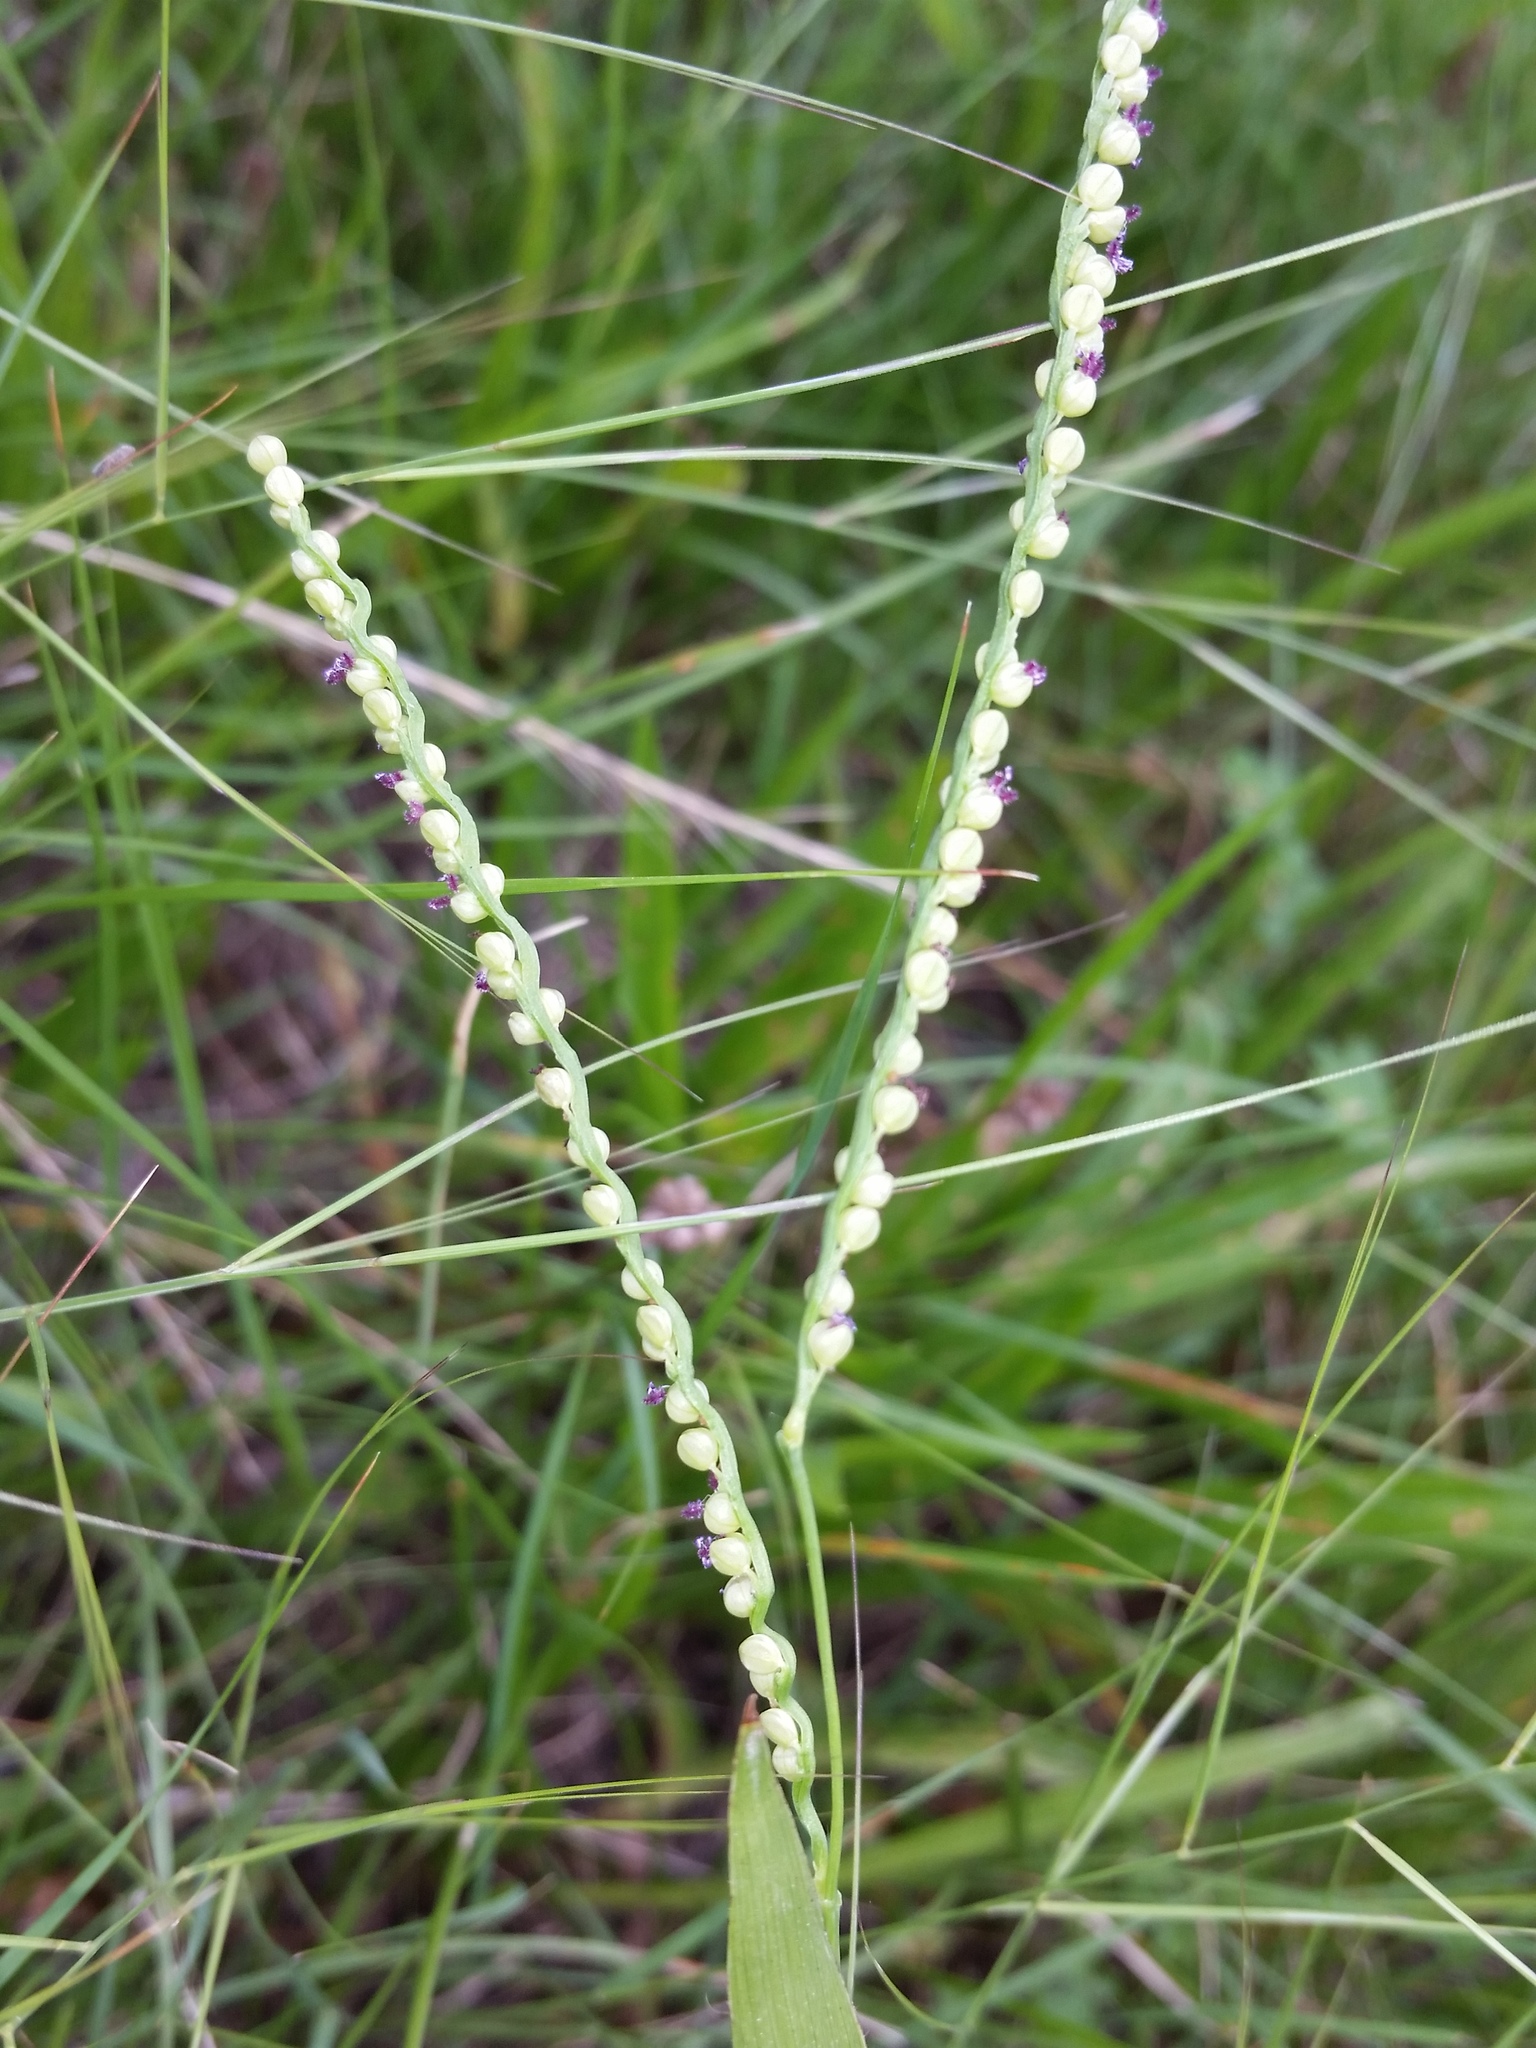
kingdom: Plantae
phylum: Tracheophyta
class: Liliopsida
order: Poales
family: Poaceae
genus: Paspalum
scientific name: Paspalum setaceum
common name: Slender paspalum
